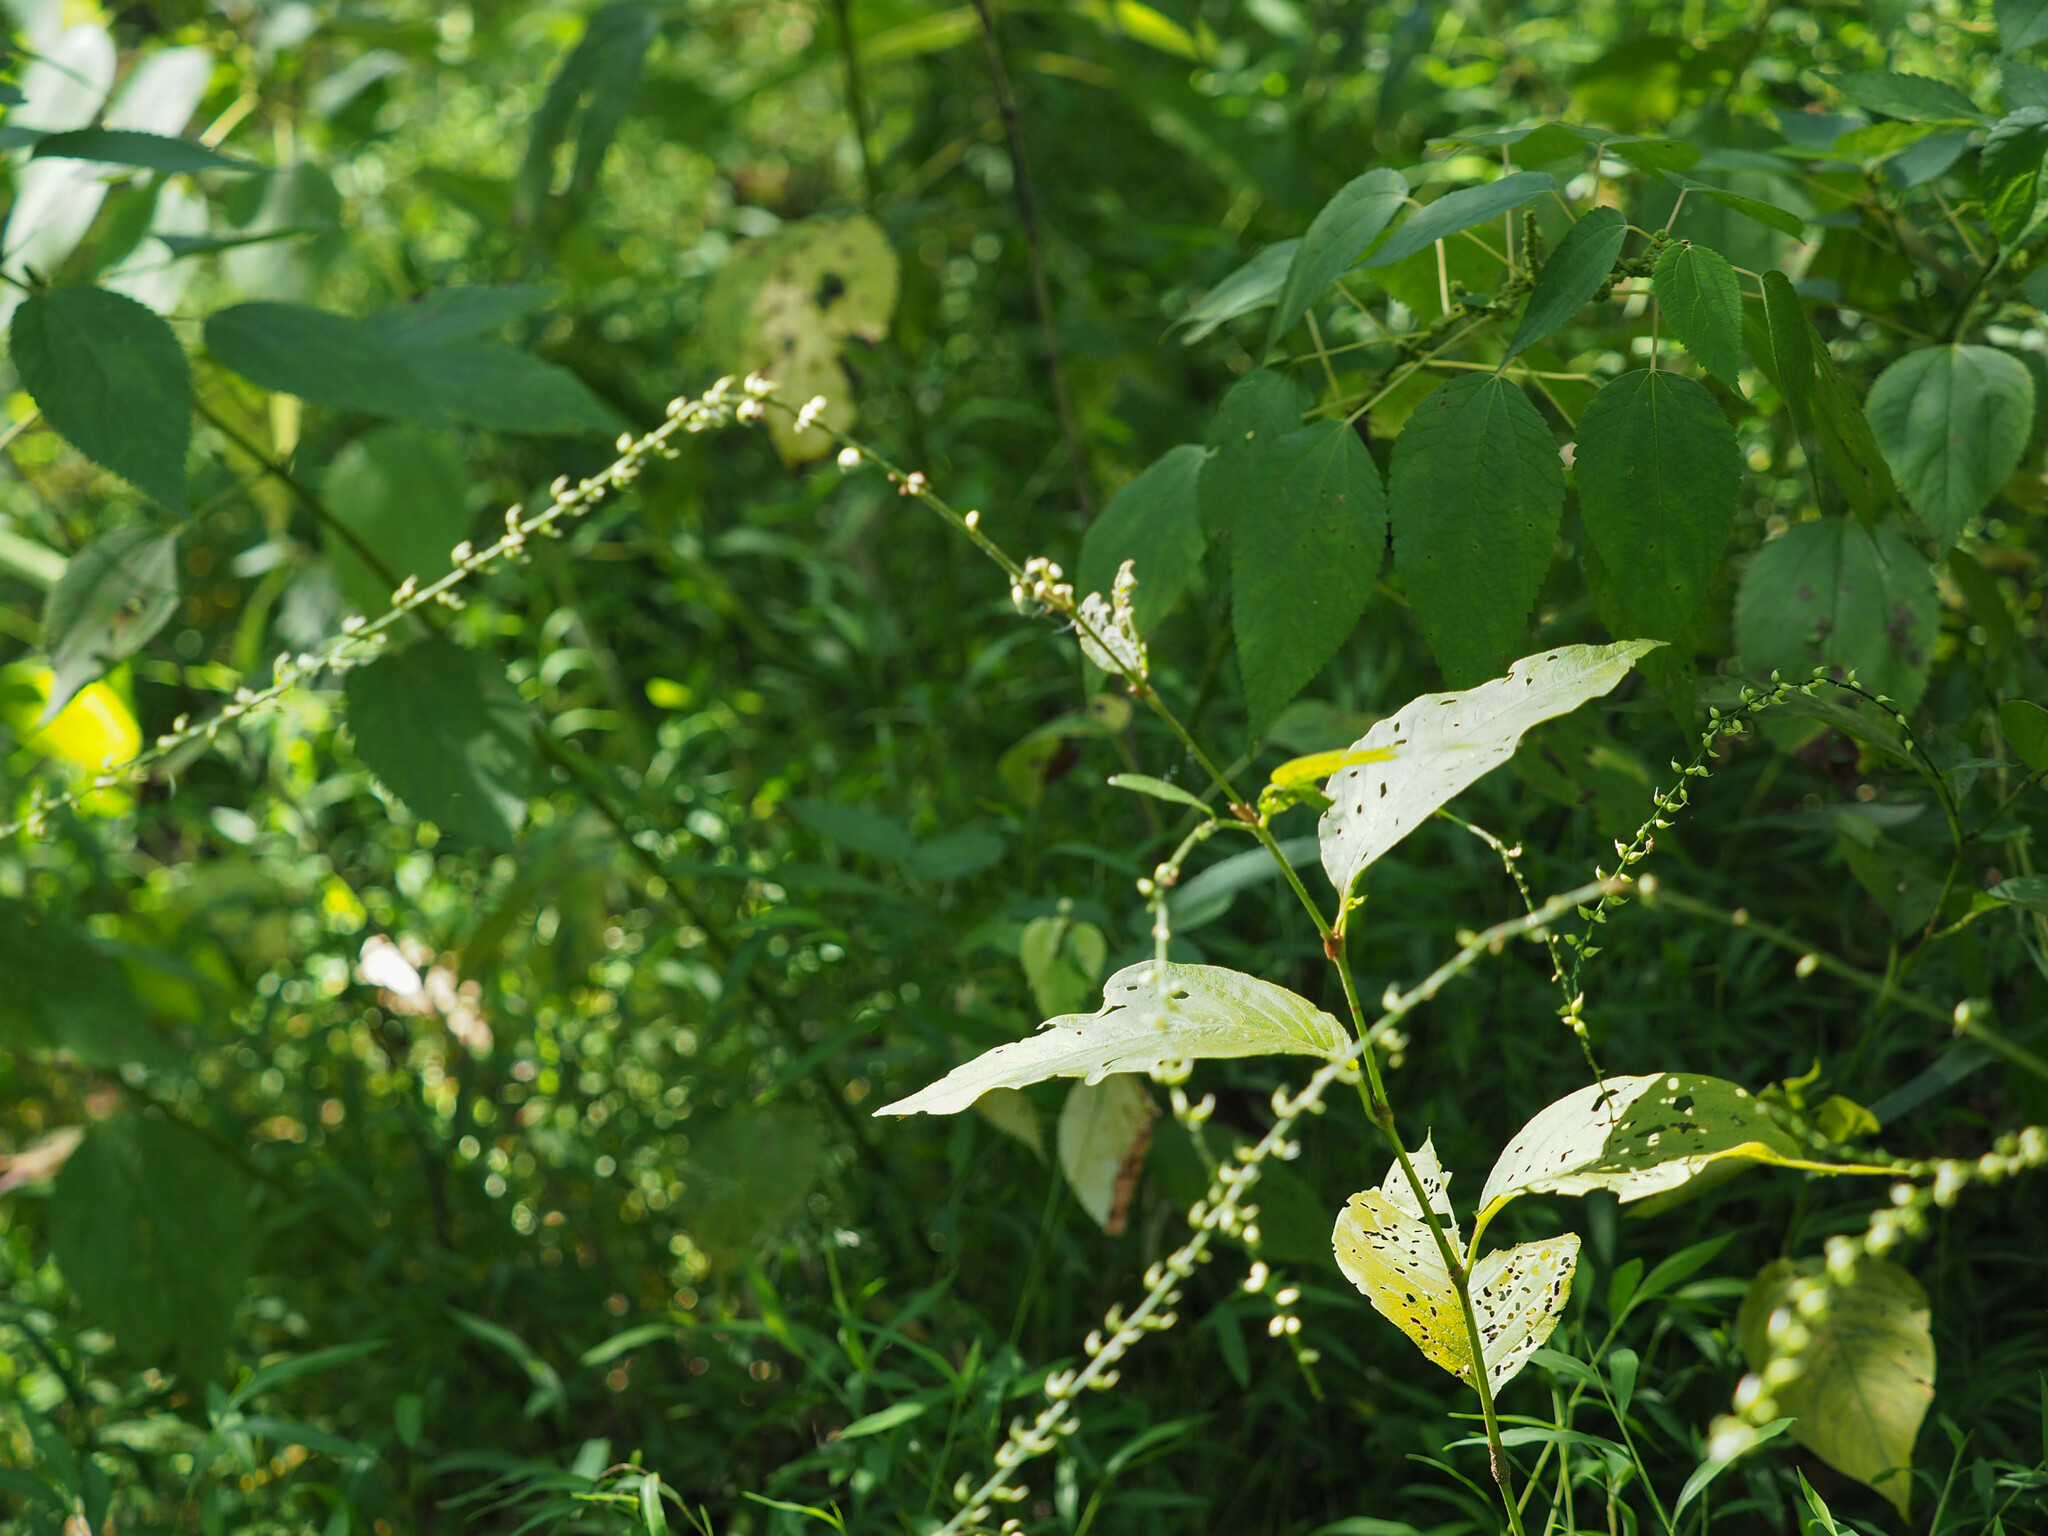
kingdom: Plantae
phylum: Tracheophyta
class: Magnoliopsida
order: Caryophyllales
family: Polygonaceae
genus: Persicaria
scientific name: Persicaria virginiana
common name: Jumpseed
